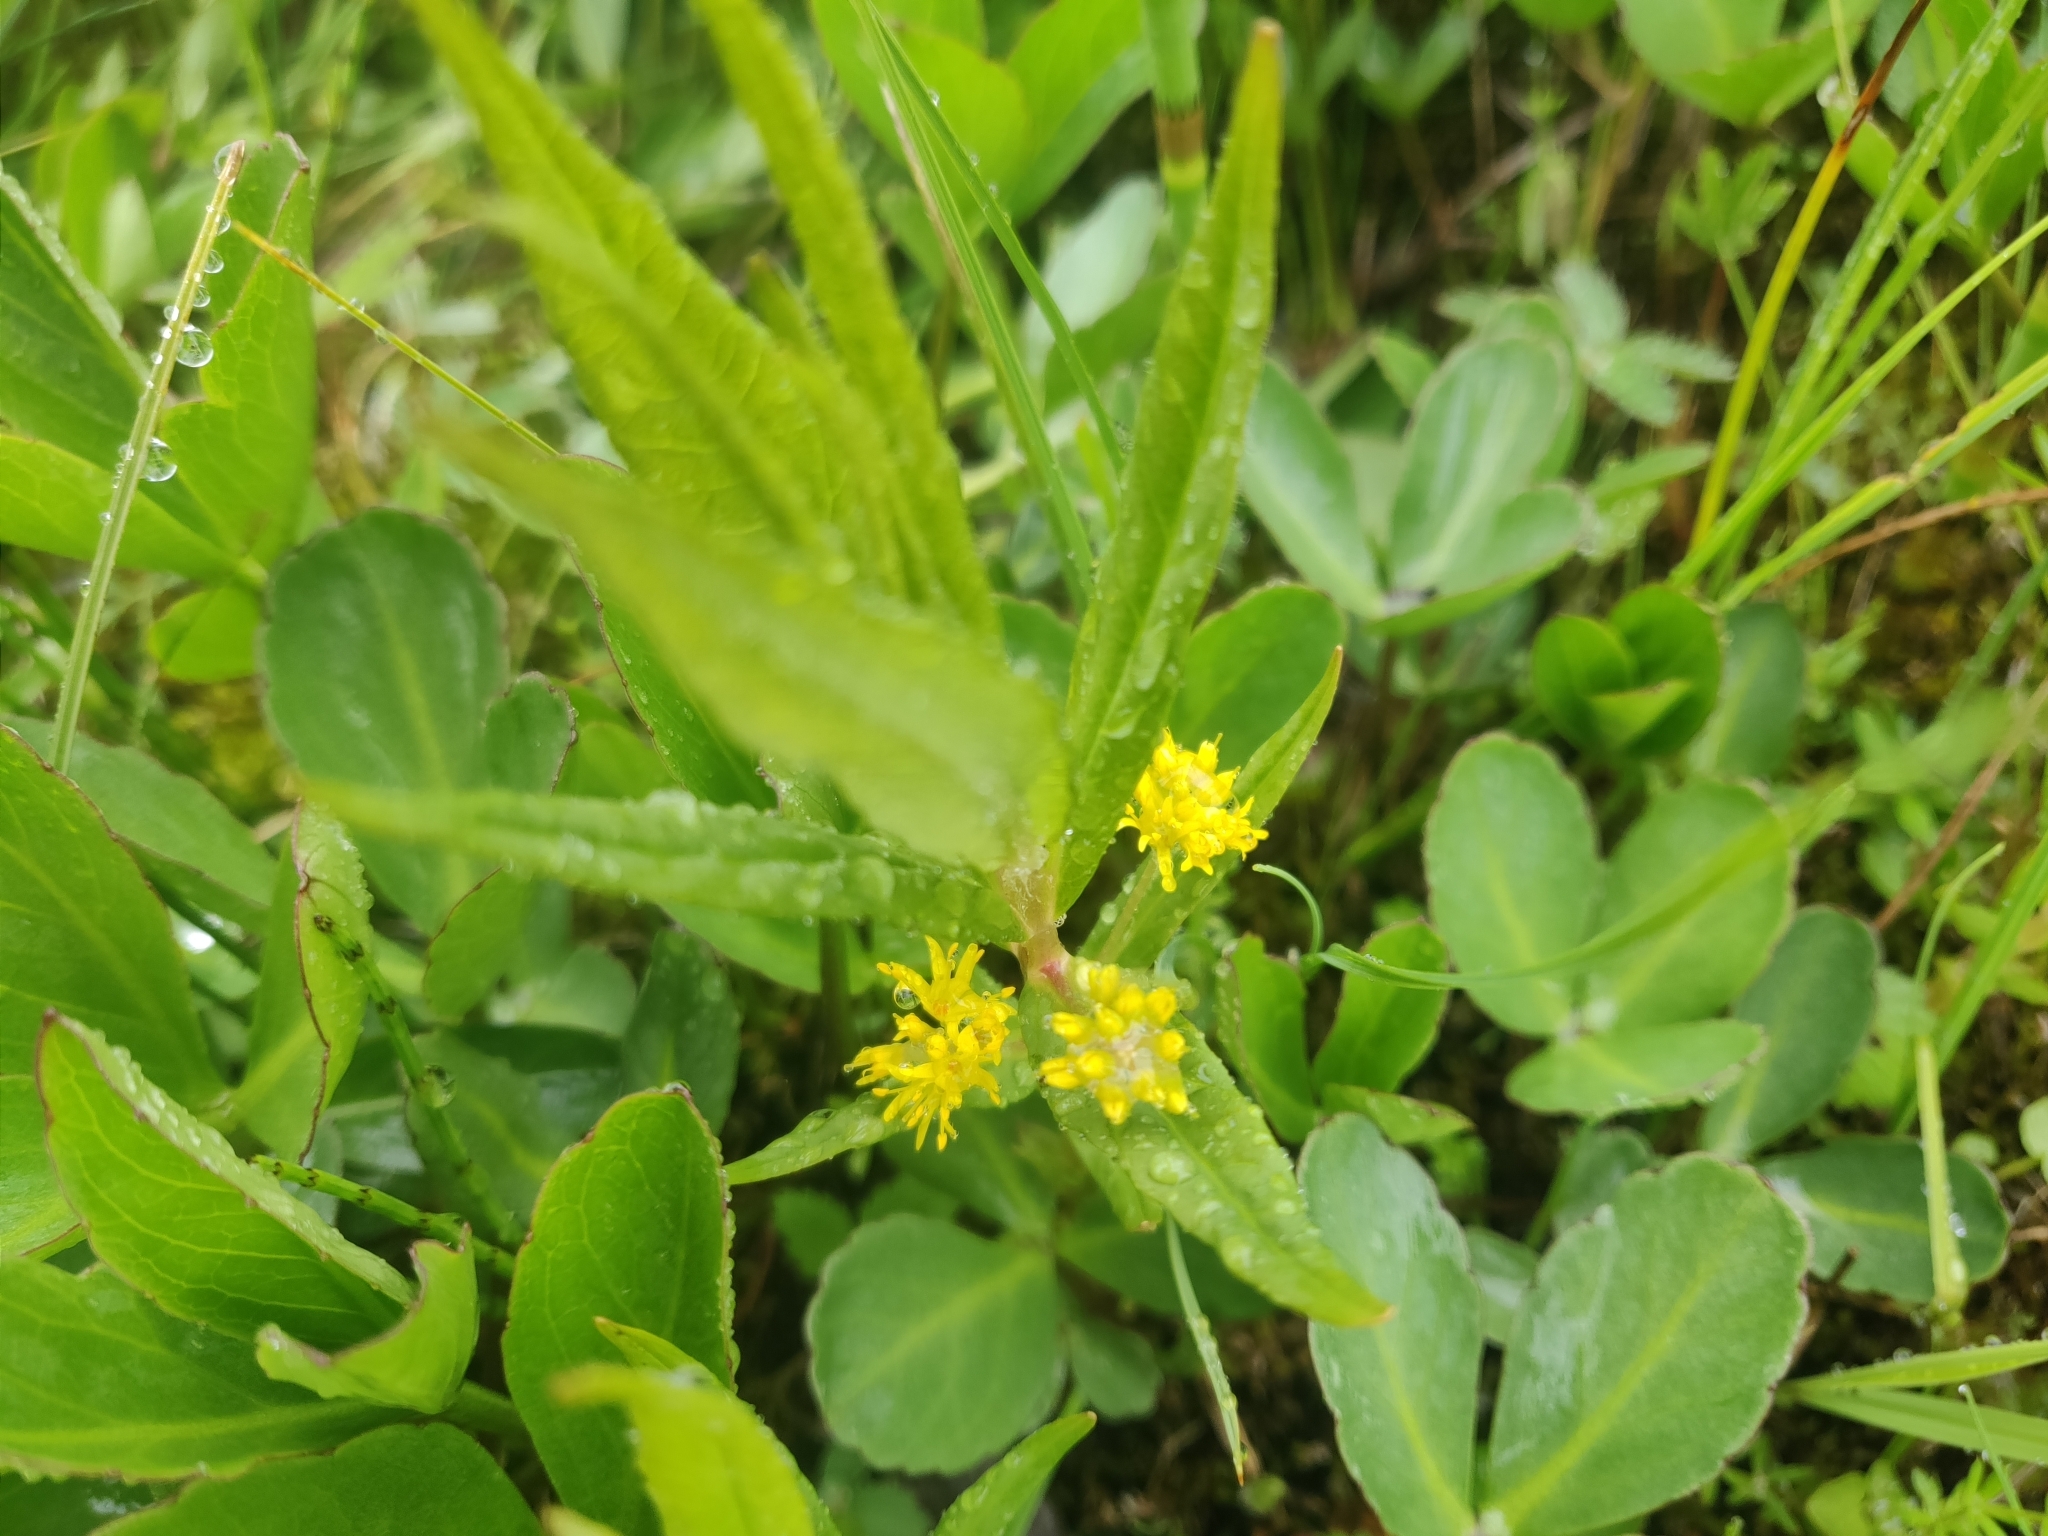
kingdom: Plantae
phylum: Tracheophyta
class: Magnoliopsida
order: Ericales
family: Primulaceae
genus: Lysimachia
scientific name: Lysimachia thyrsiflora
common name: Tufted loosestrife
